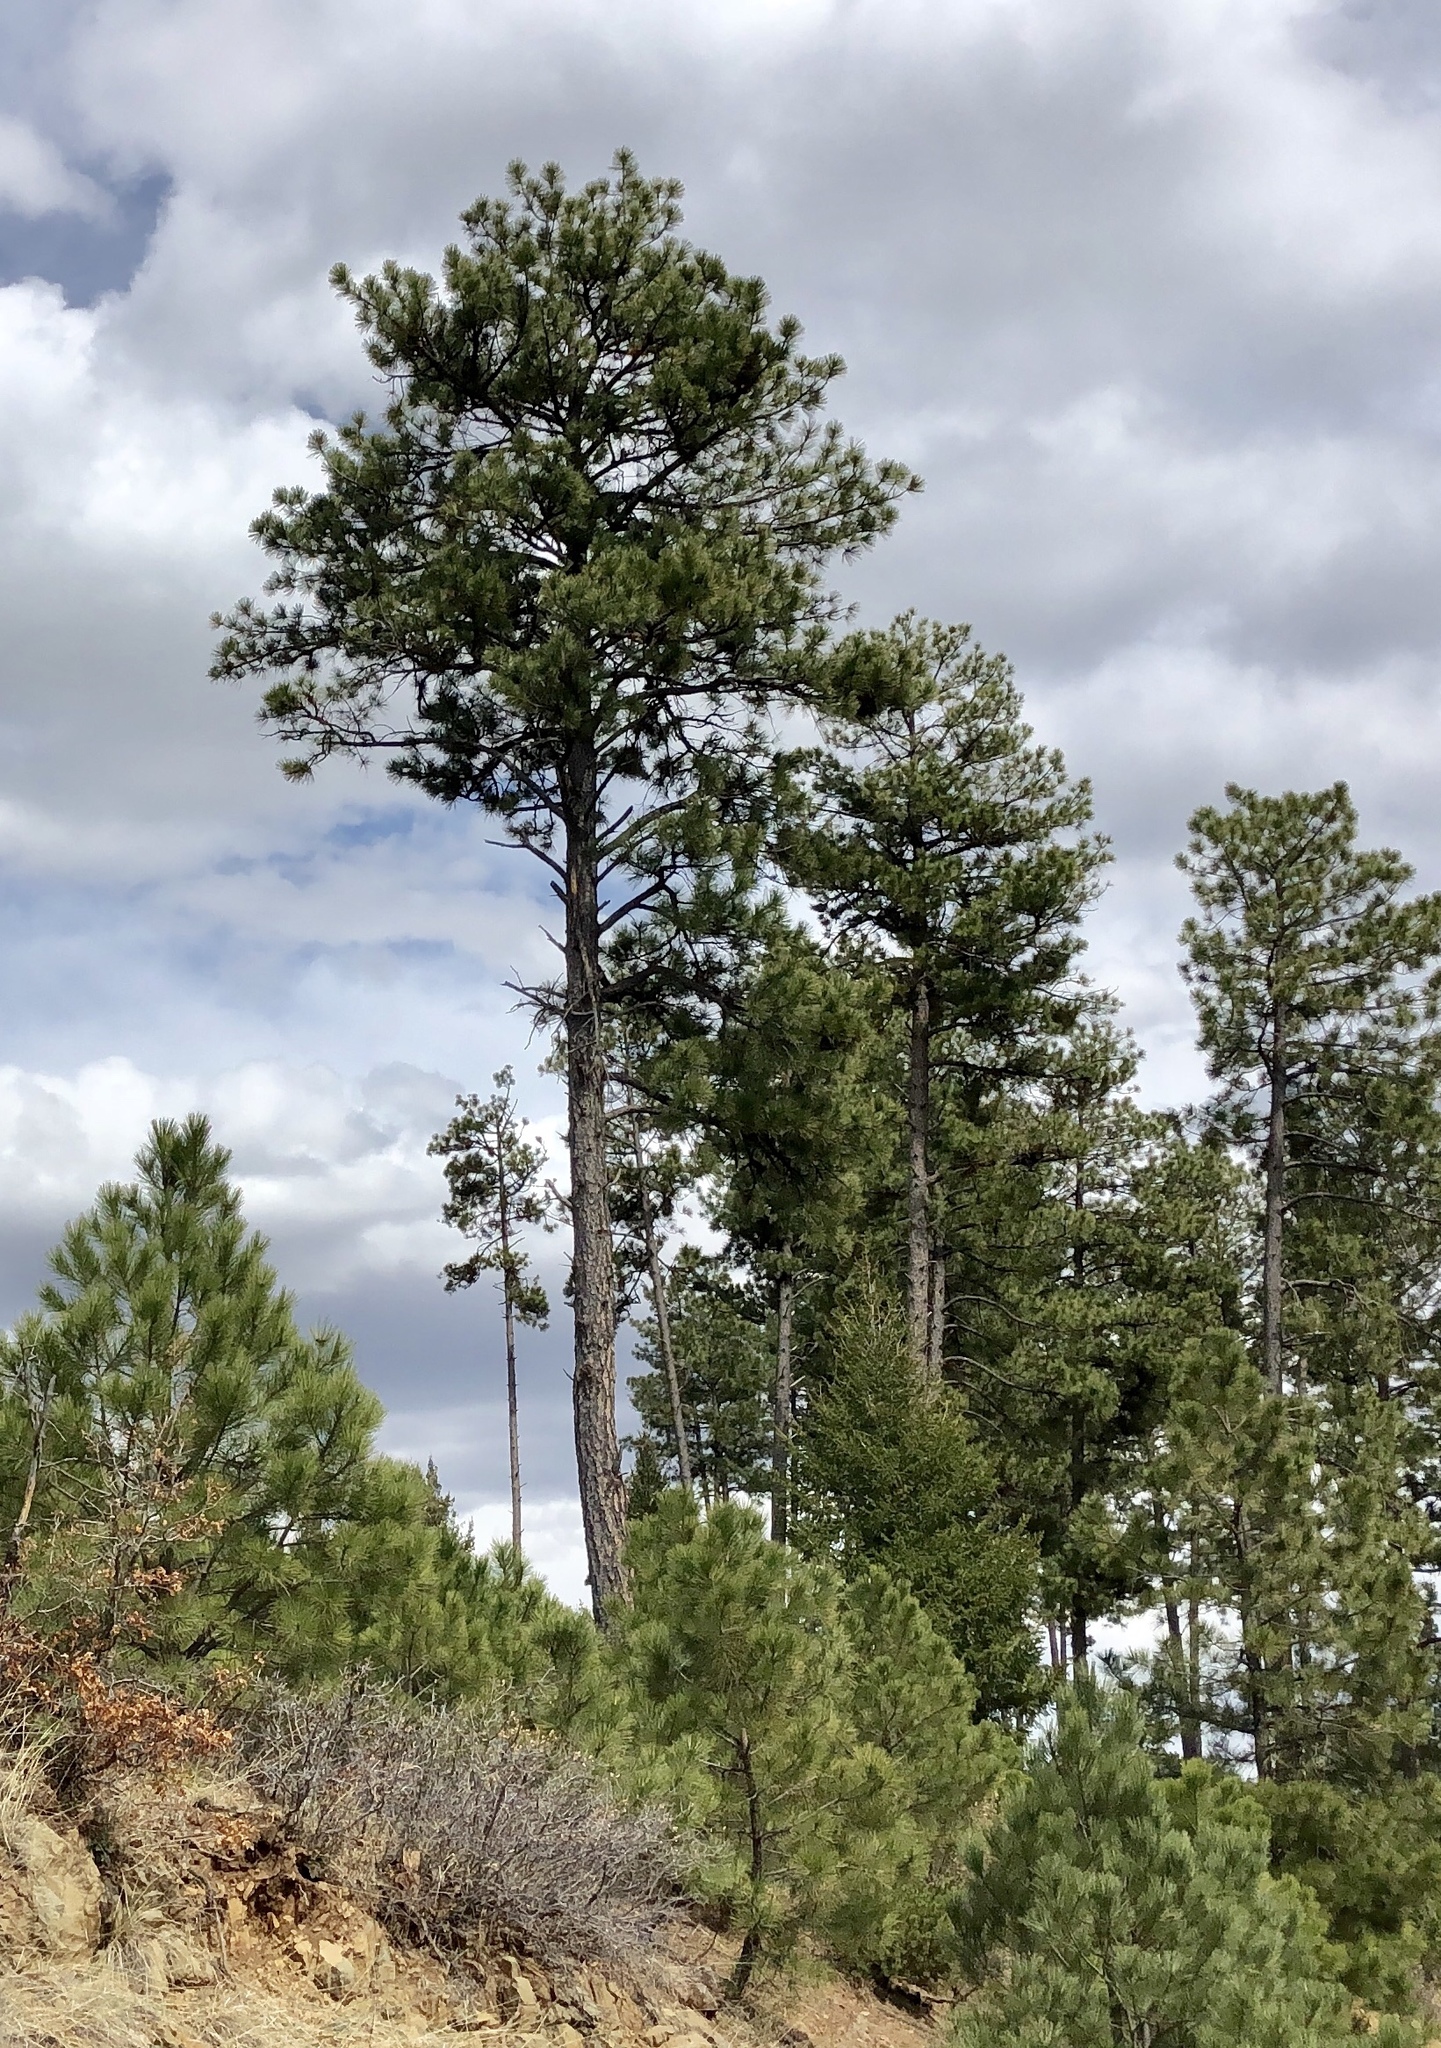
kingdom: Plantae
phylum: Tracheophyta
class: Pinopsida
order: Pinales
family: Pinaceae
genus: Pinus
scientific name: Pinus ponderosa
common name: Western yellow-pine
